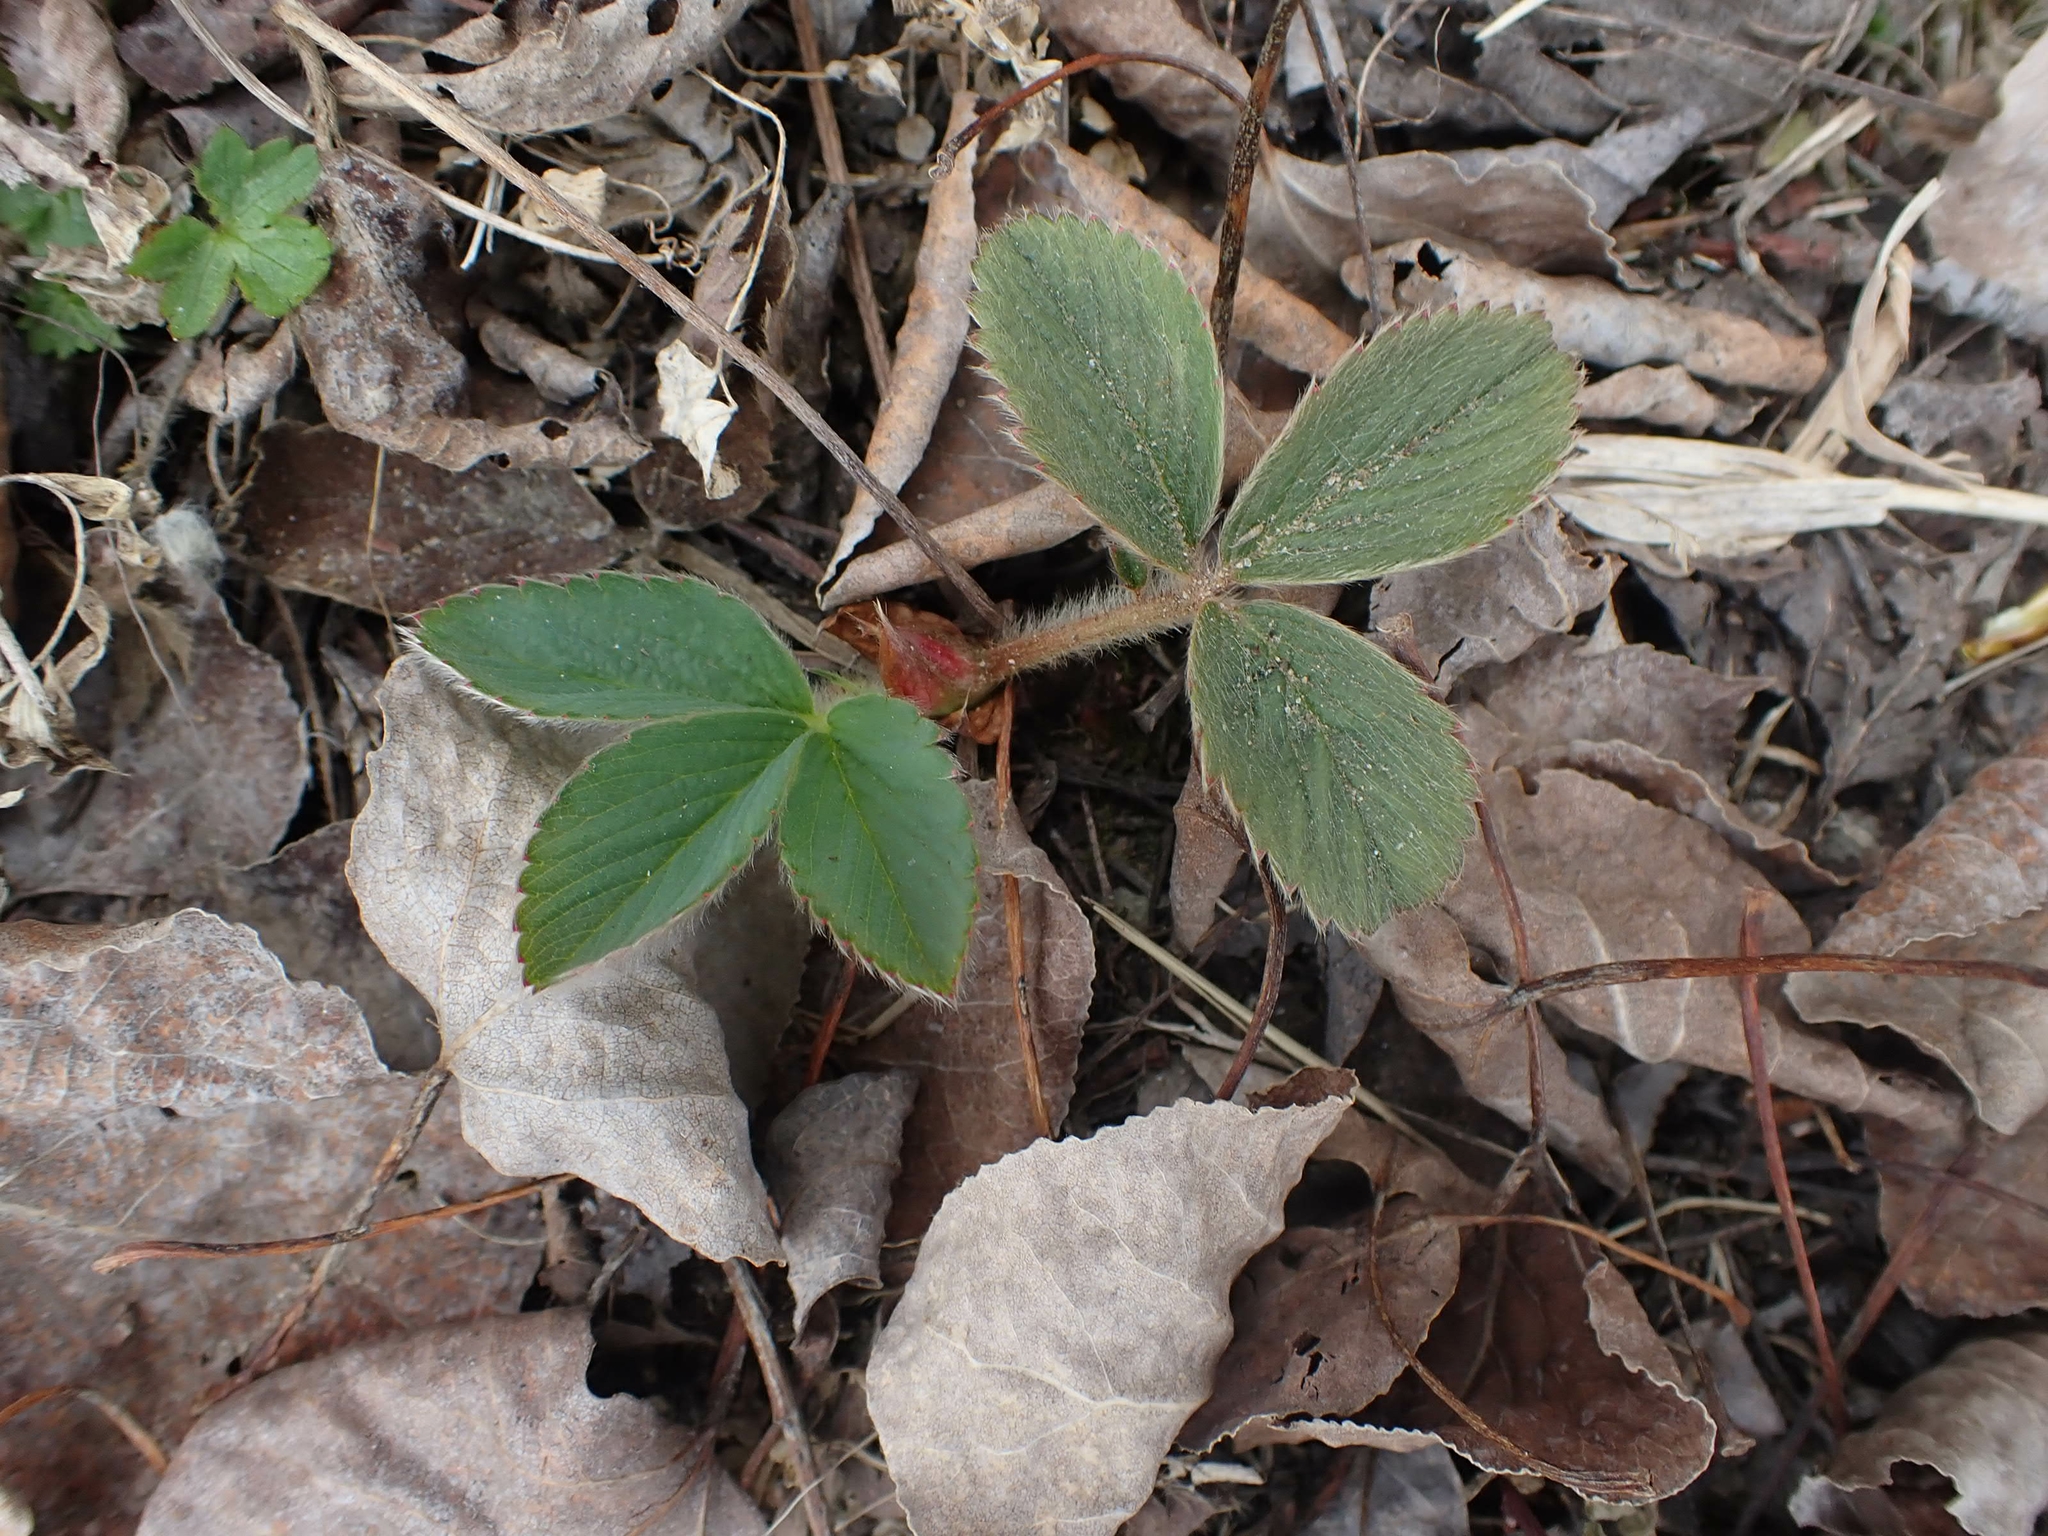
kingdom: Plantae
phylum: Tracheophyta
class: Magnoliopsida
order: Rosales
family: Rosaceae
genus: Fragaria
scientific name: Fragaria virginiana
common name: Thickleaved wild strawberry
